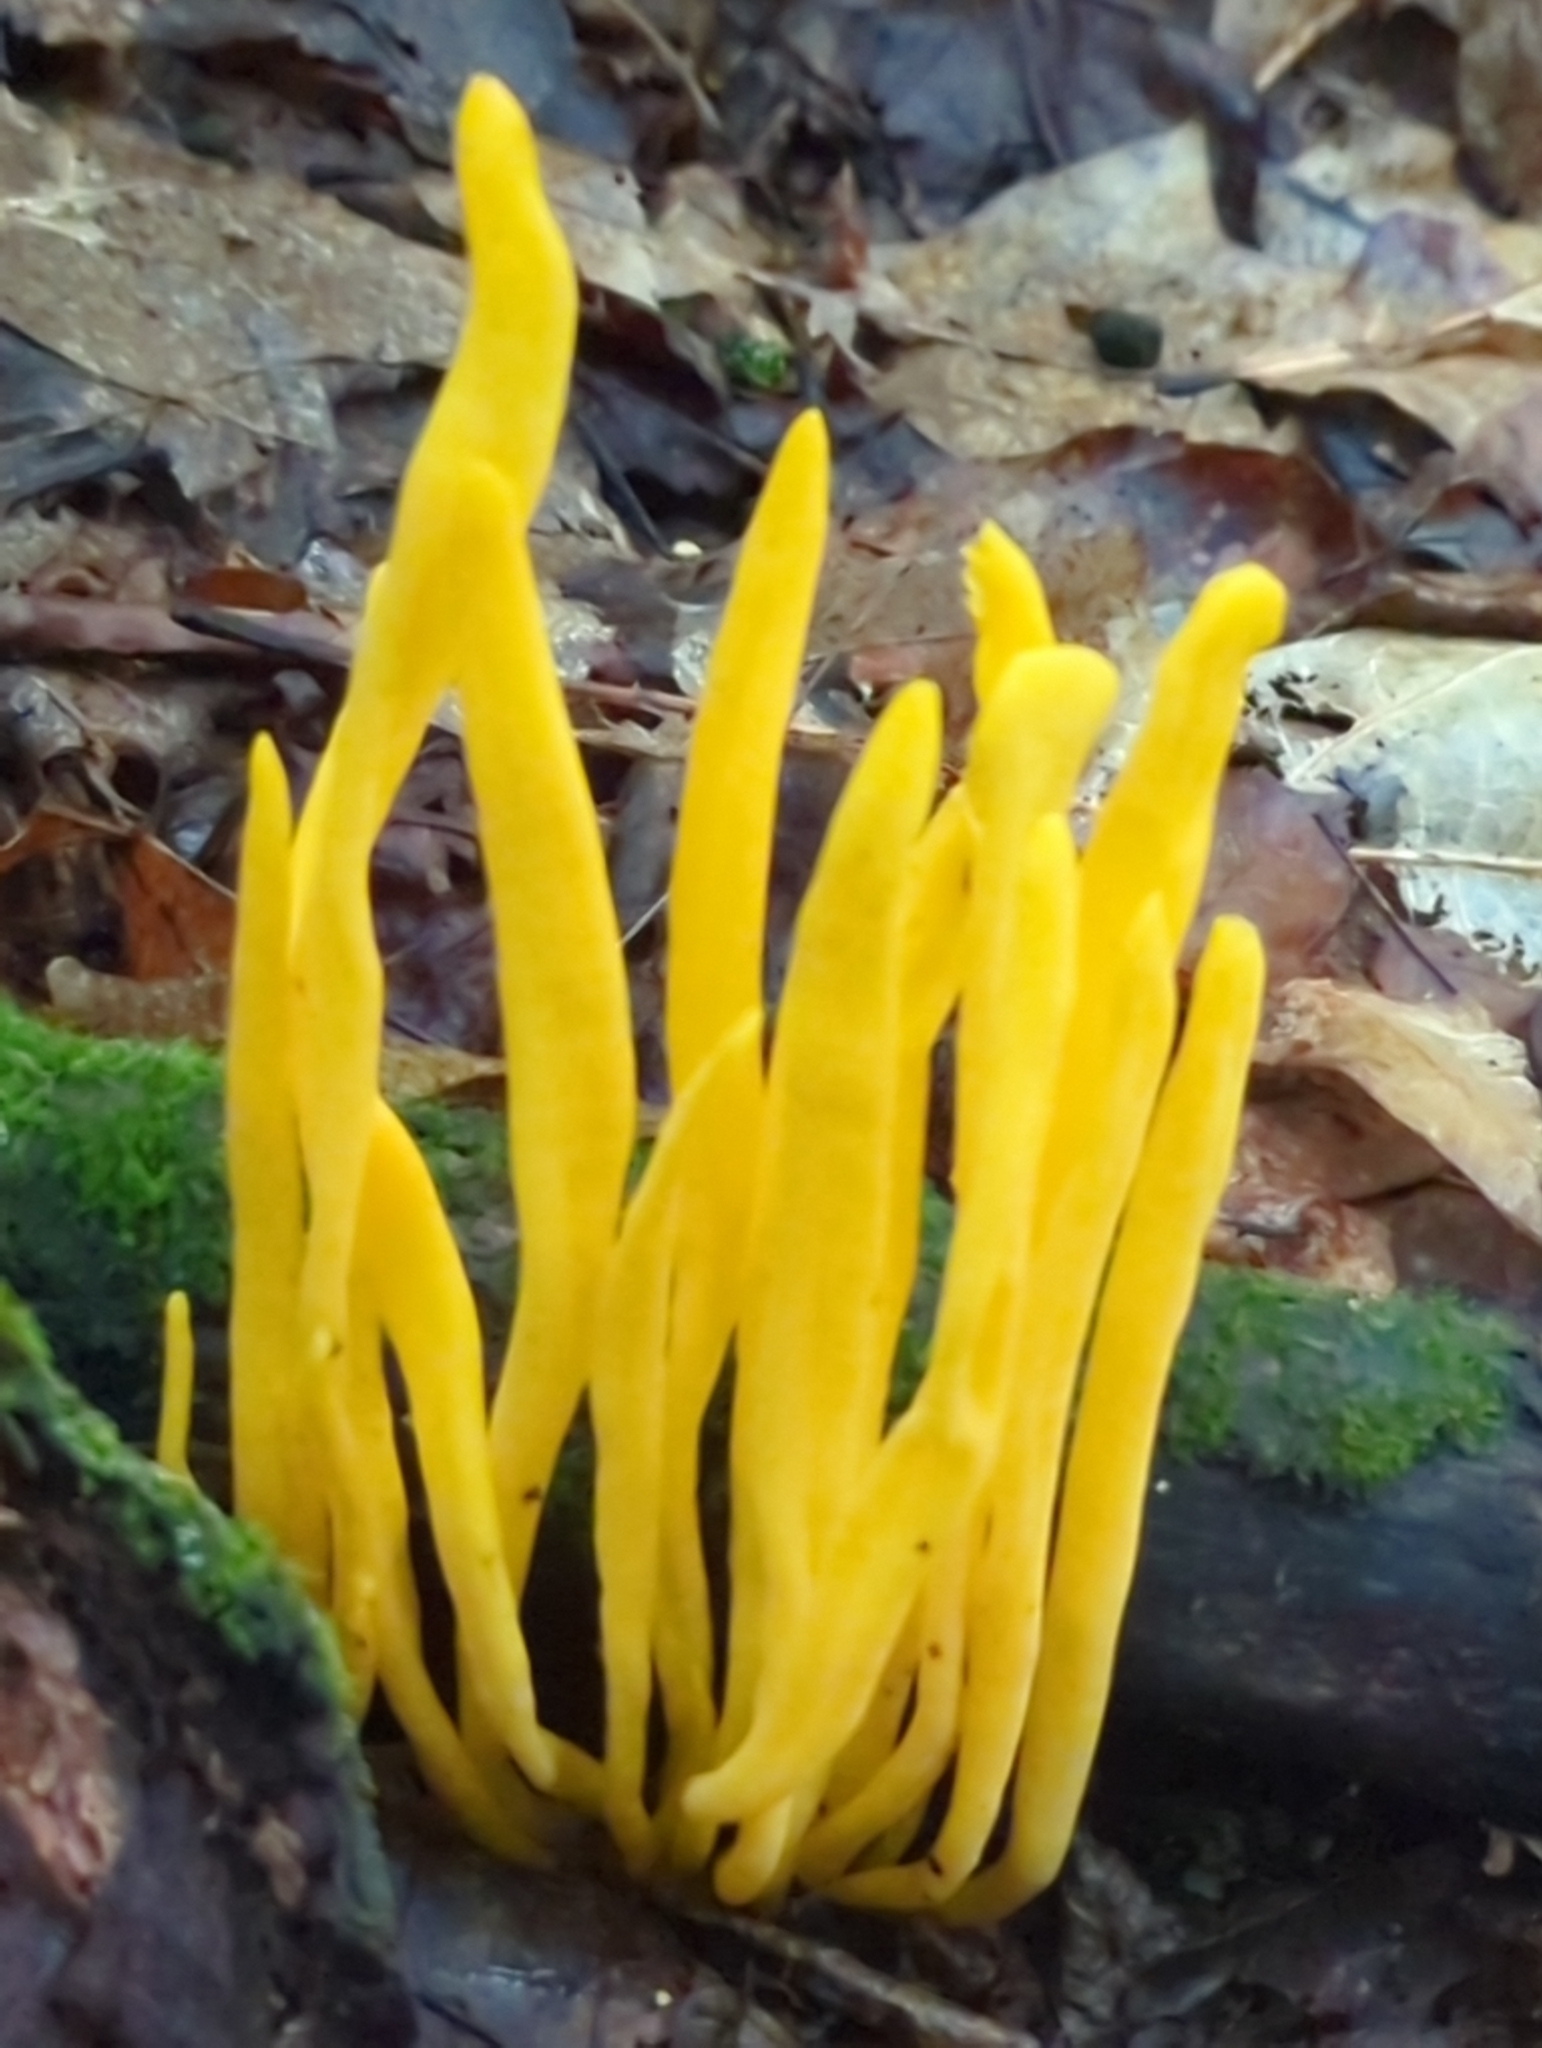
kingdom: Fungi
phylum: Basidiomycota
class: Agaricomycetes
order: Agaricales
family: Clavariaceae
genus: Clavulinopsis
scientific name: Clavulinopsis fusiformis
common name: Golden spindles
